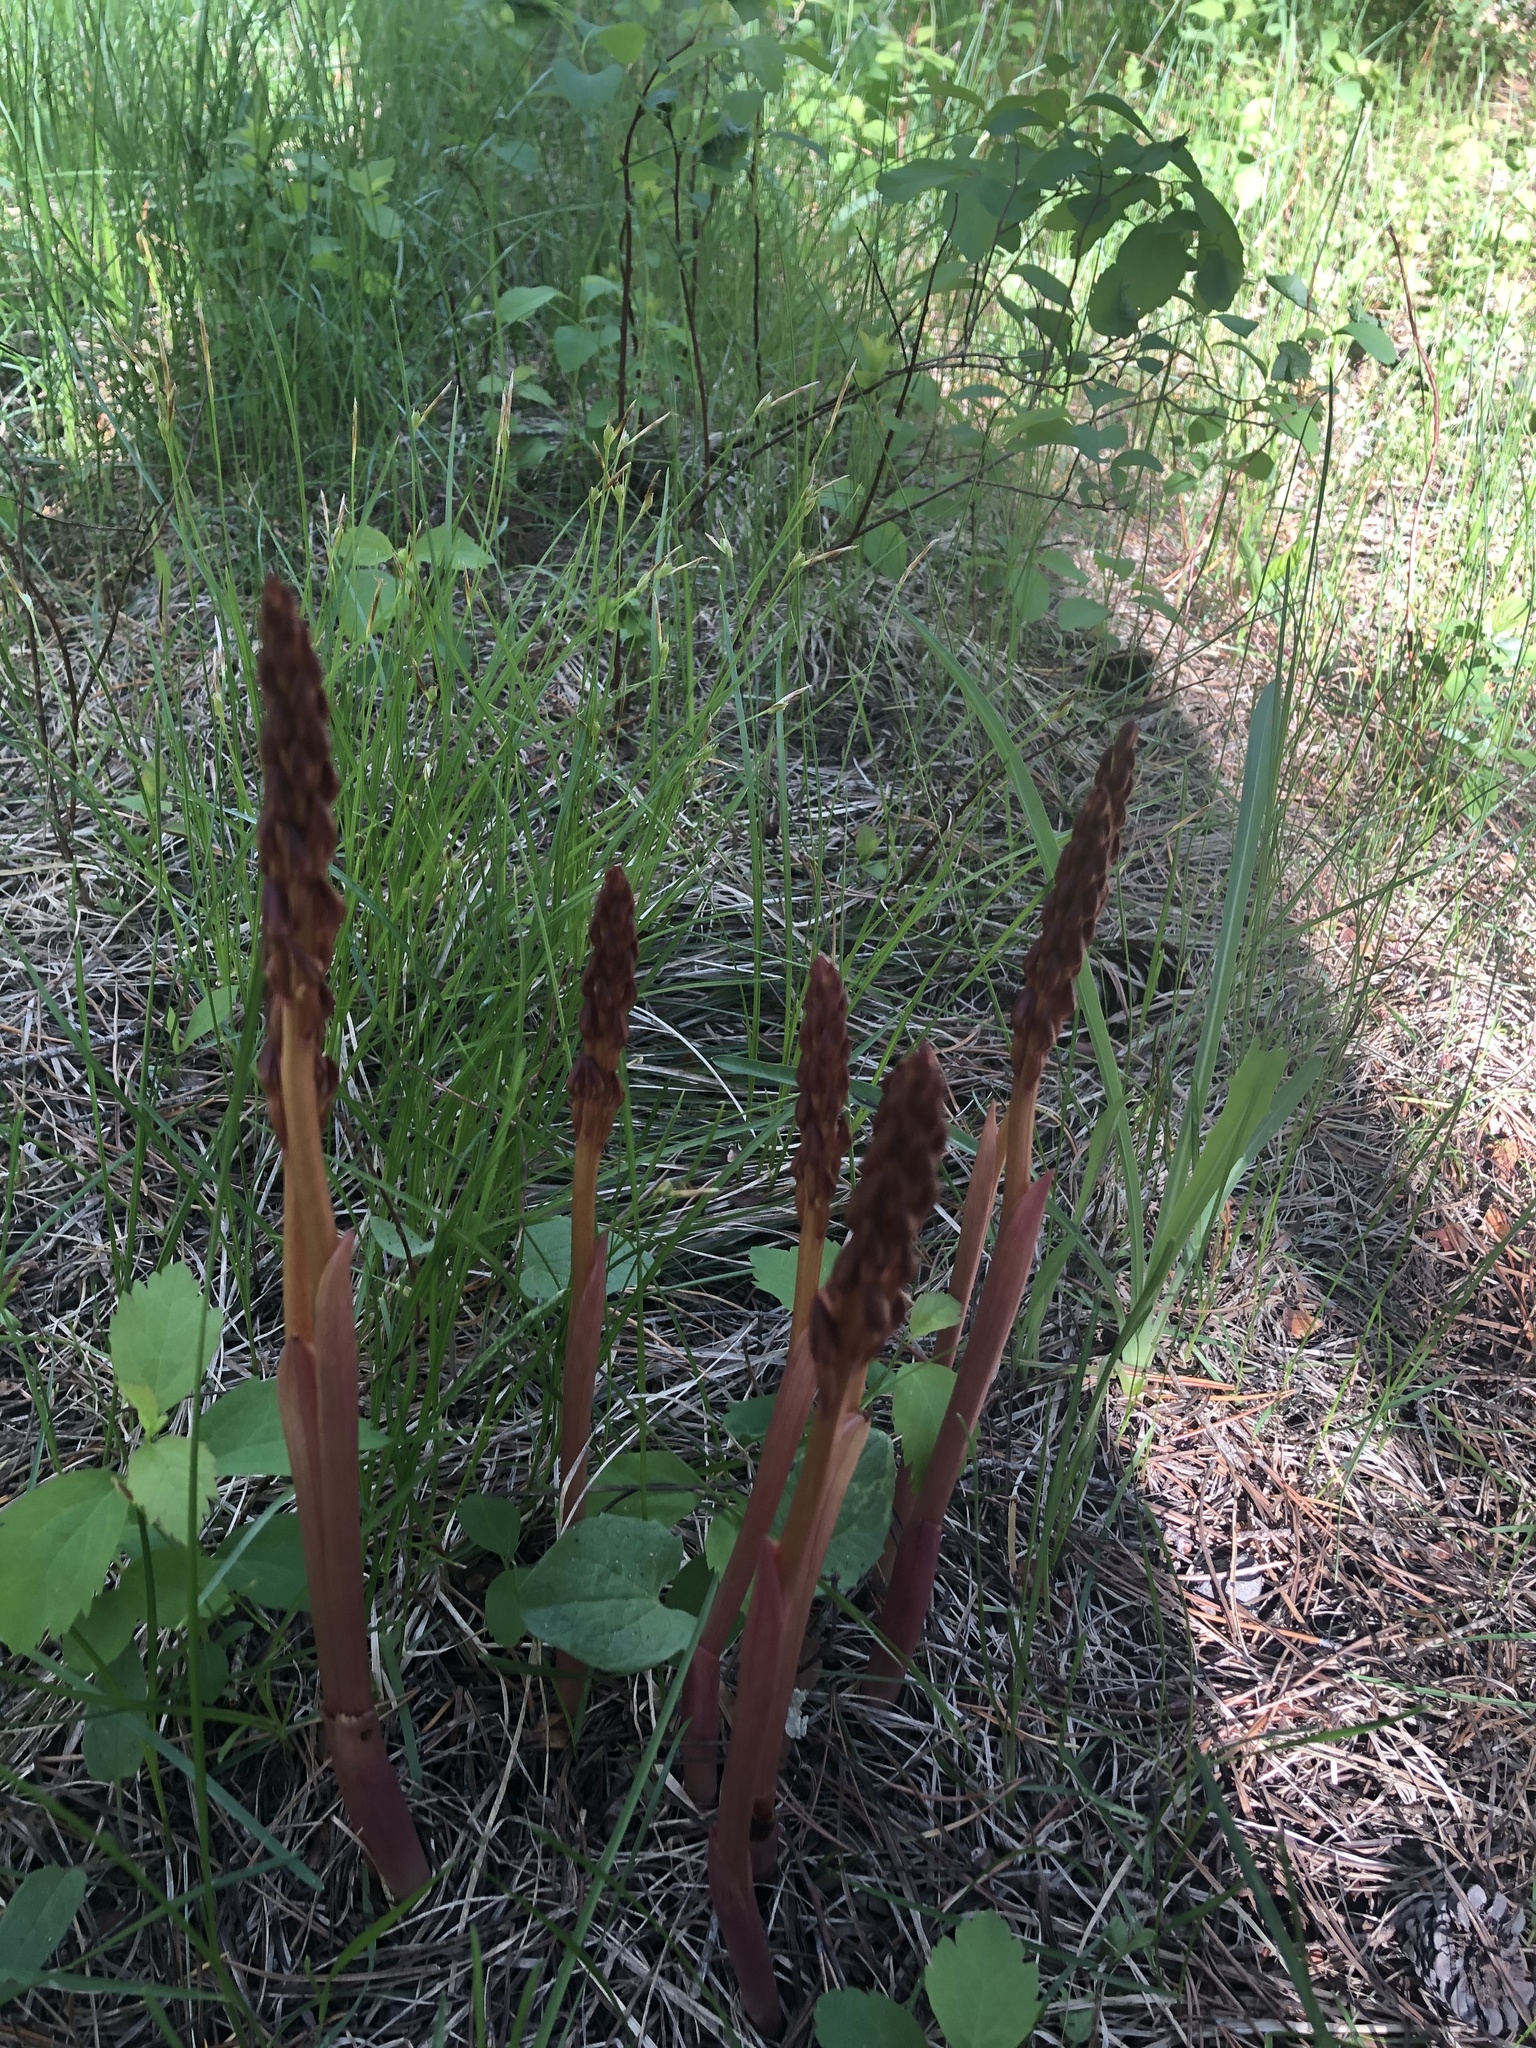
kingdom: Plantae
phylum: Tracheophyta
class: Liliopsida
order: Asparagales
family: Orchidaceae
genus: Corallorhiza
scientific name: Corallorhiza maculata
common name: Spotted coralroot
